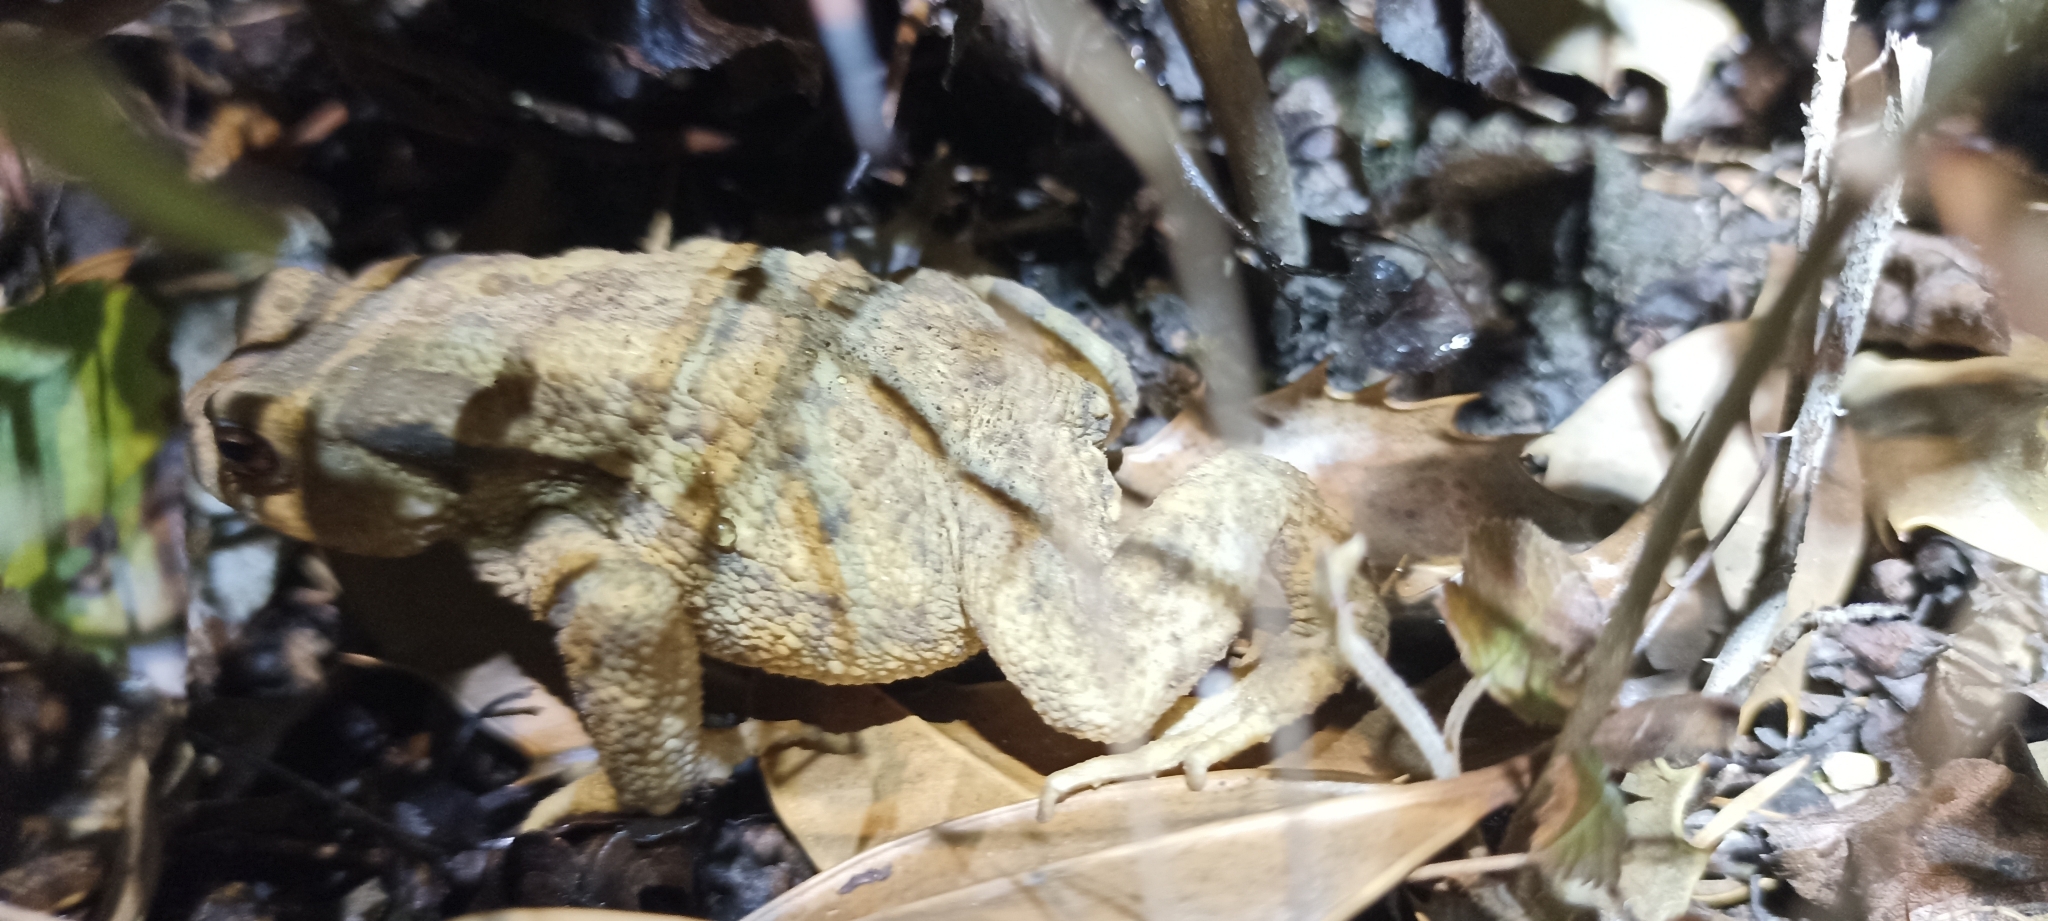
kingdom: Animalia
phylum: Chordata
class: Amphibia
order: Anura
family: Bufonidae
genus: Bufo
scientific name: Bufo spinosus
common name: Western common toad
